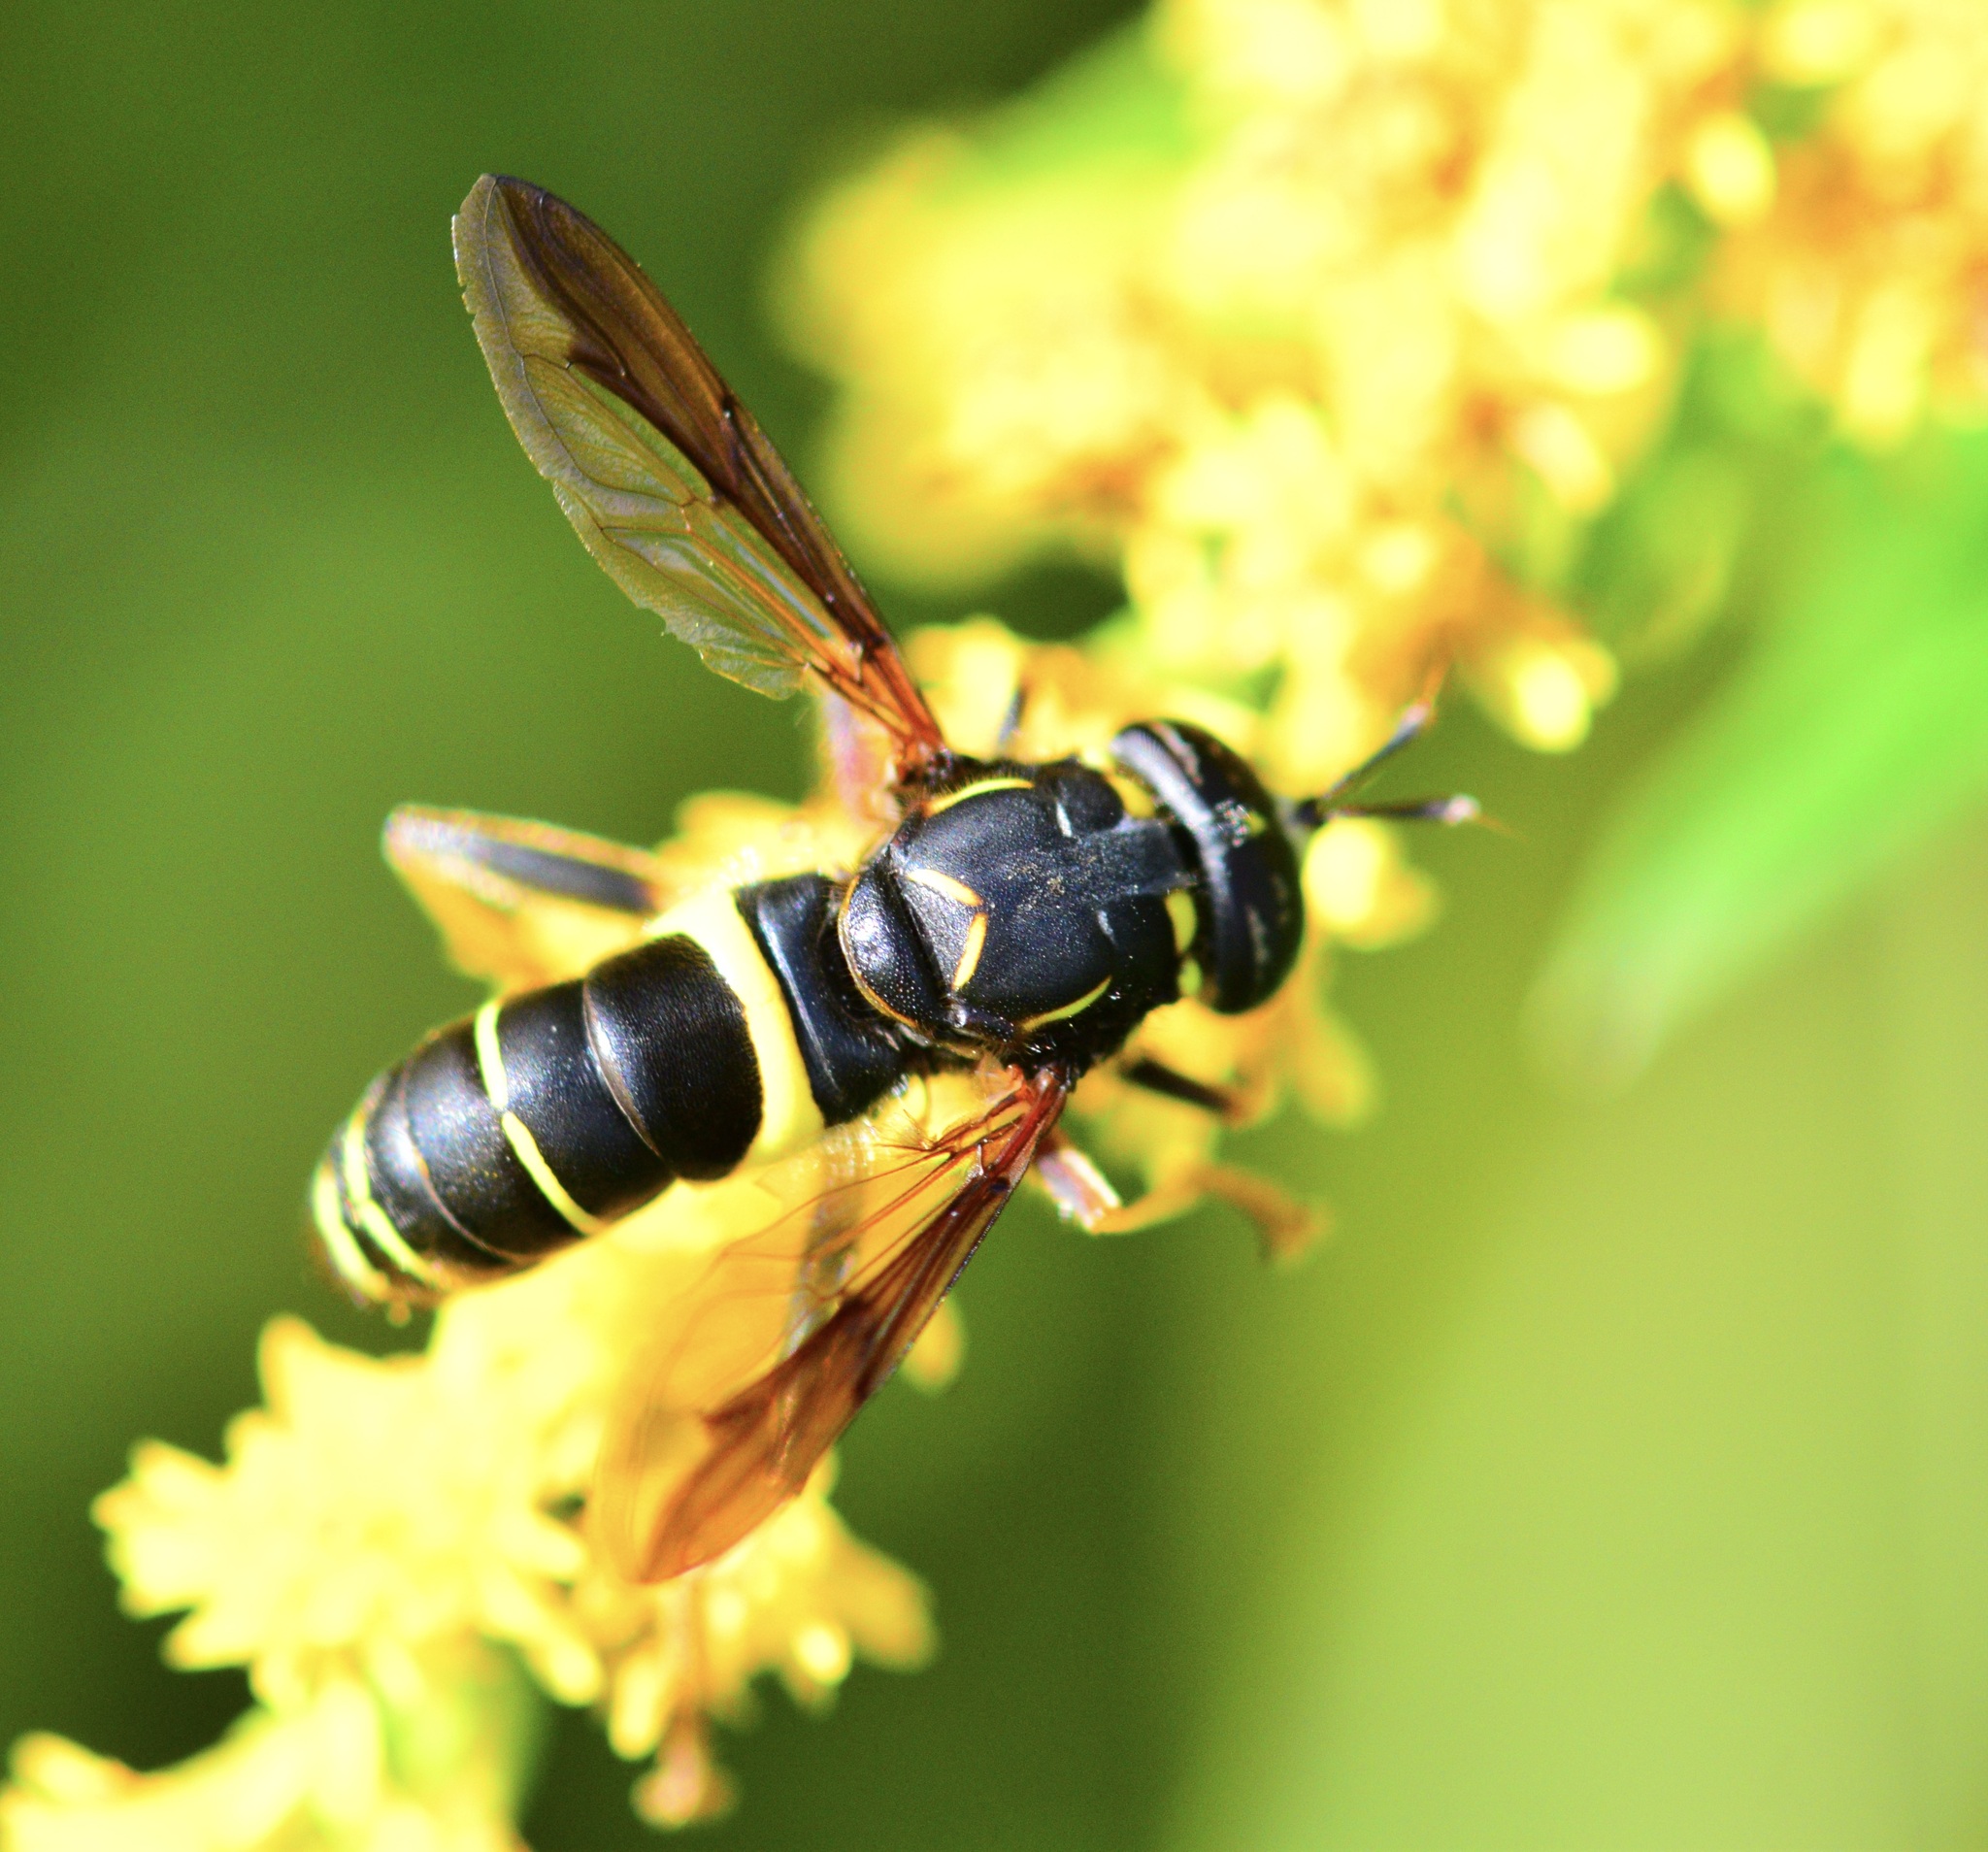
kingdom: Animalia
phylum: Arthropoda
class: Insecta
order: Diptera
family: Syrphidae
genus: Spilomyia
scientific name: Spilomyia sayi
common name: Four-lined hornet fly
